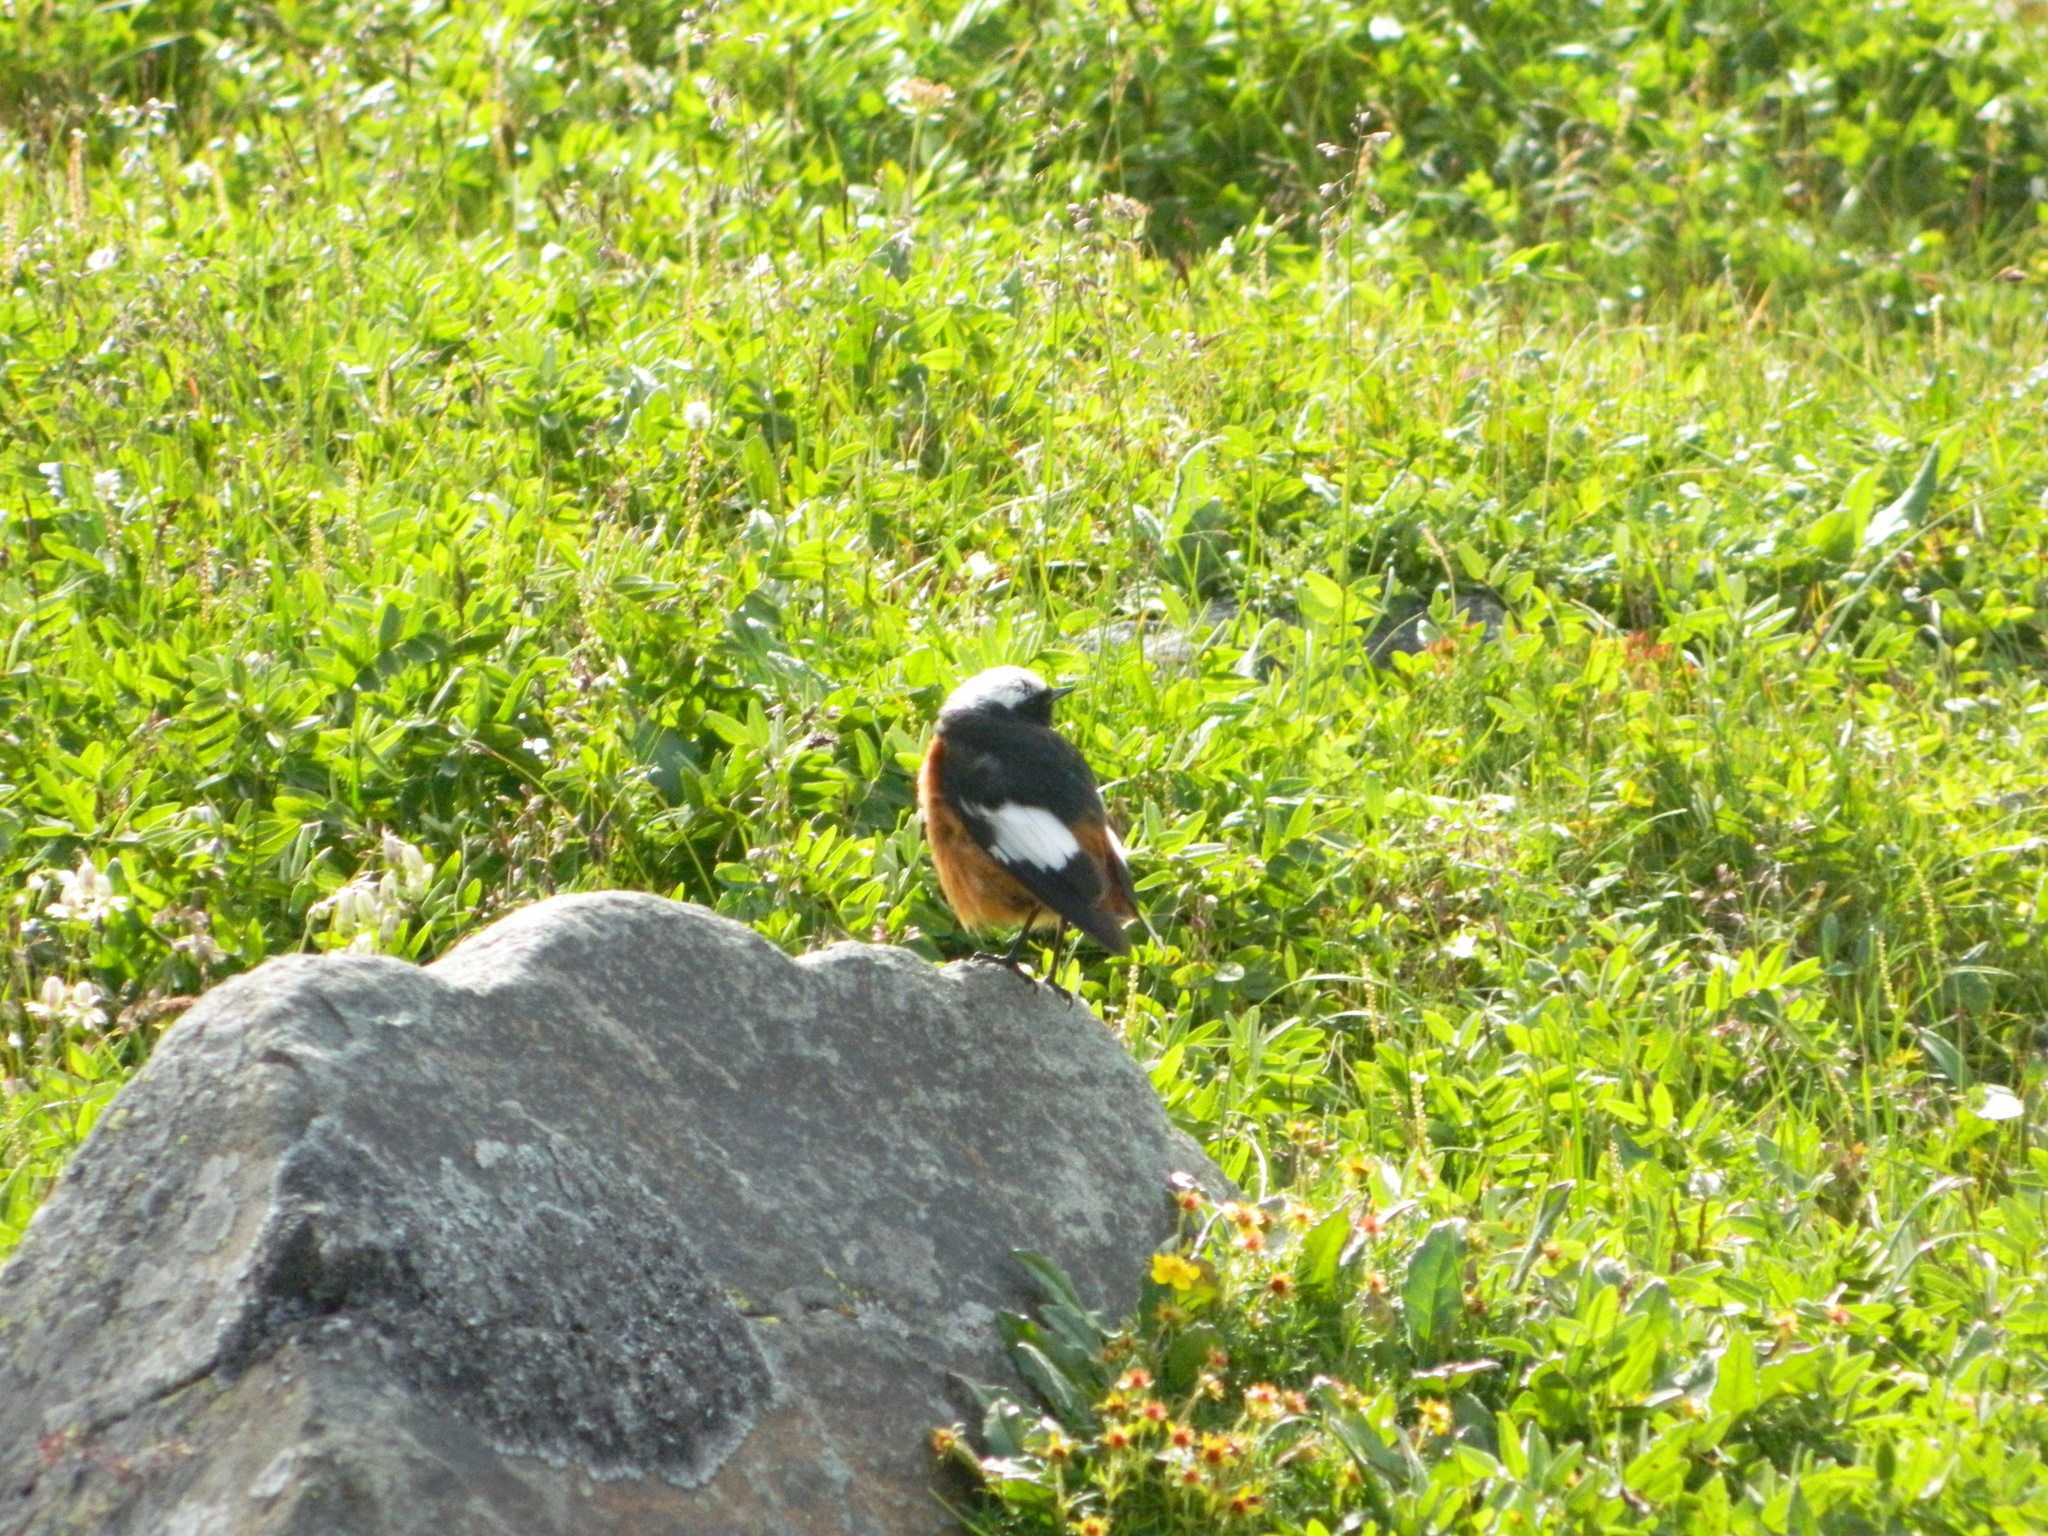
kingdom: Animalia
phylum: Chordata
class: Aves
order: Passeriformes
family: Muscicapidae
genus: Phoenicurus
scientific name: Phoenicurus erythrogastrus
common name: Güldenstädt's redstart
